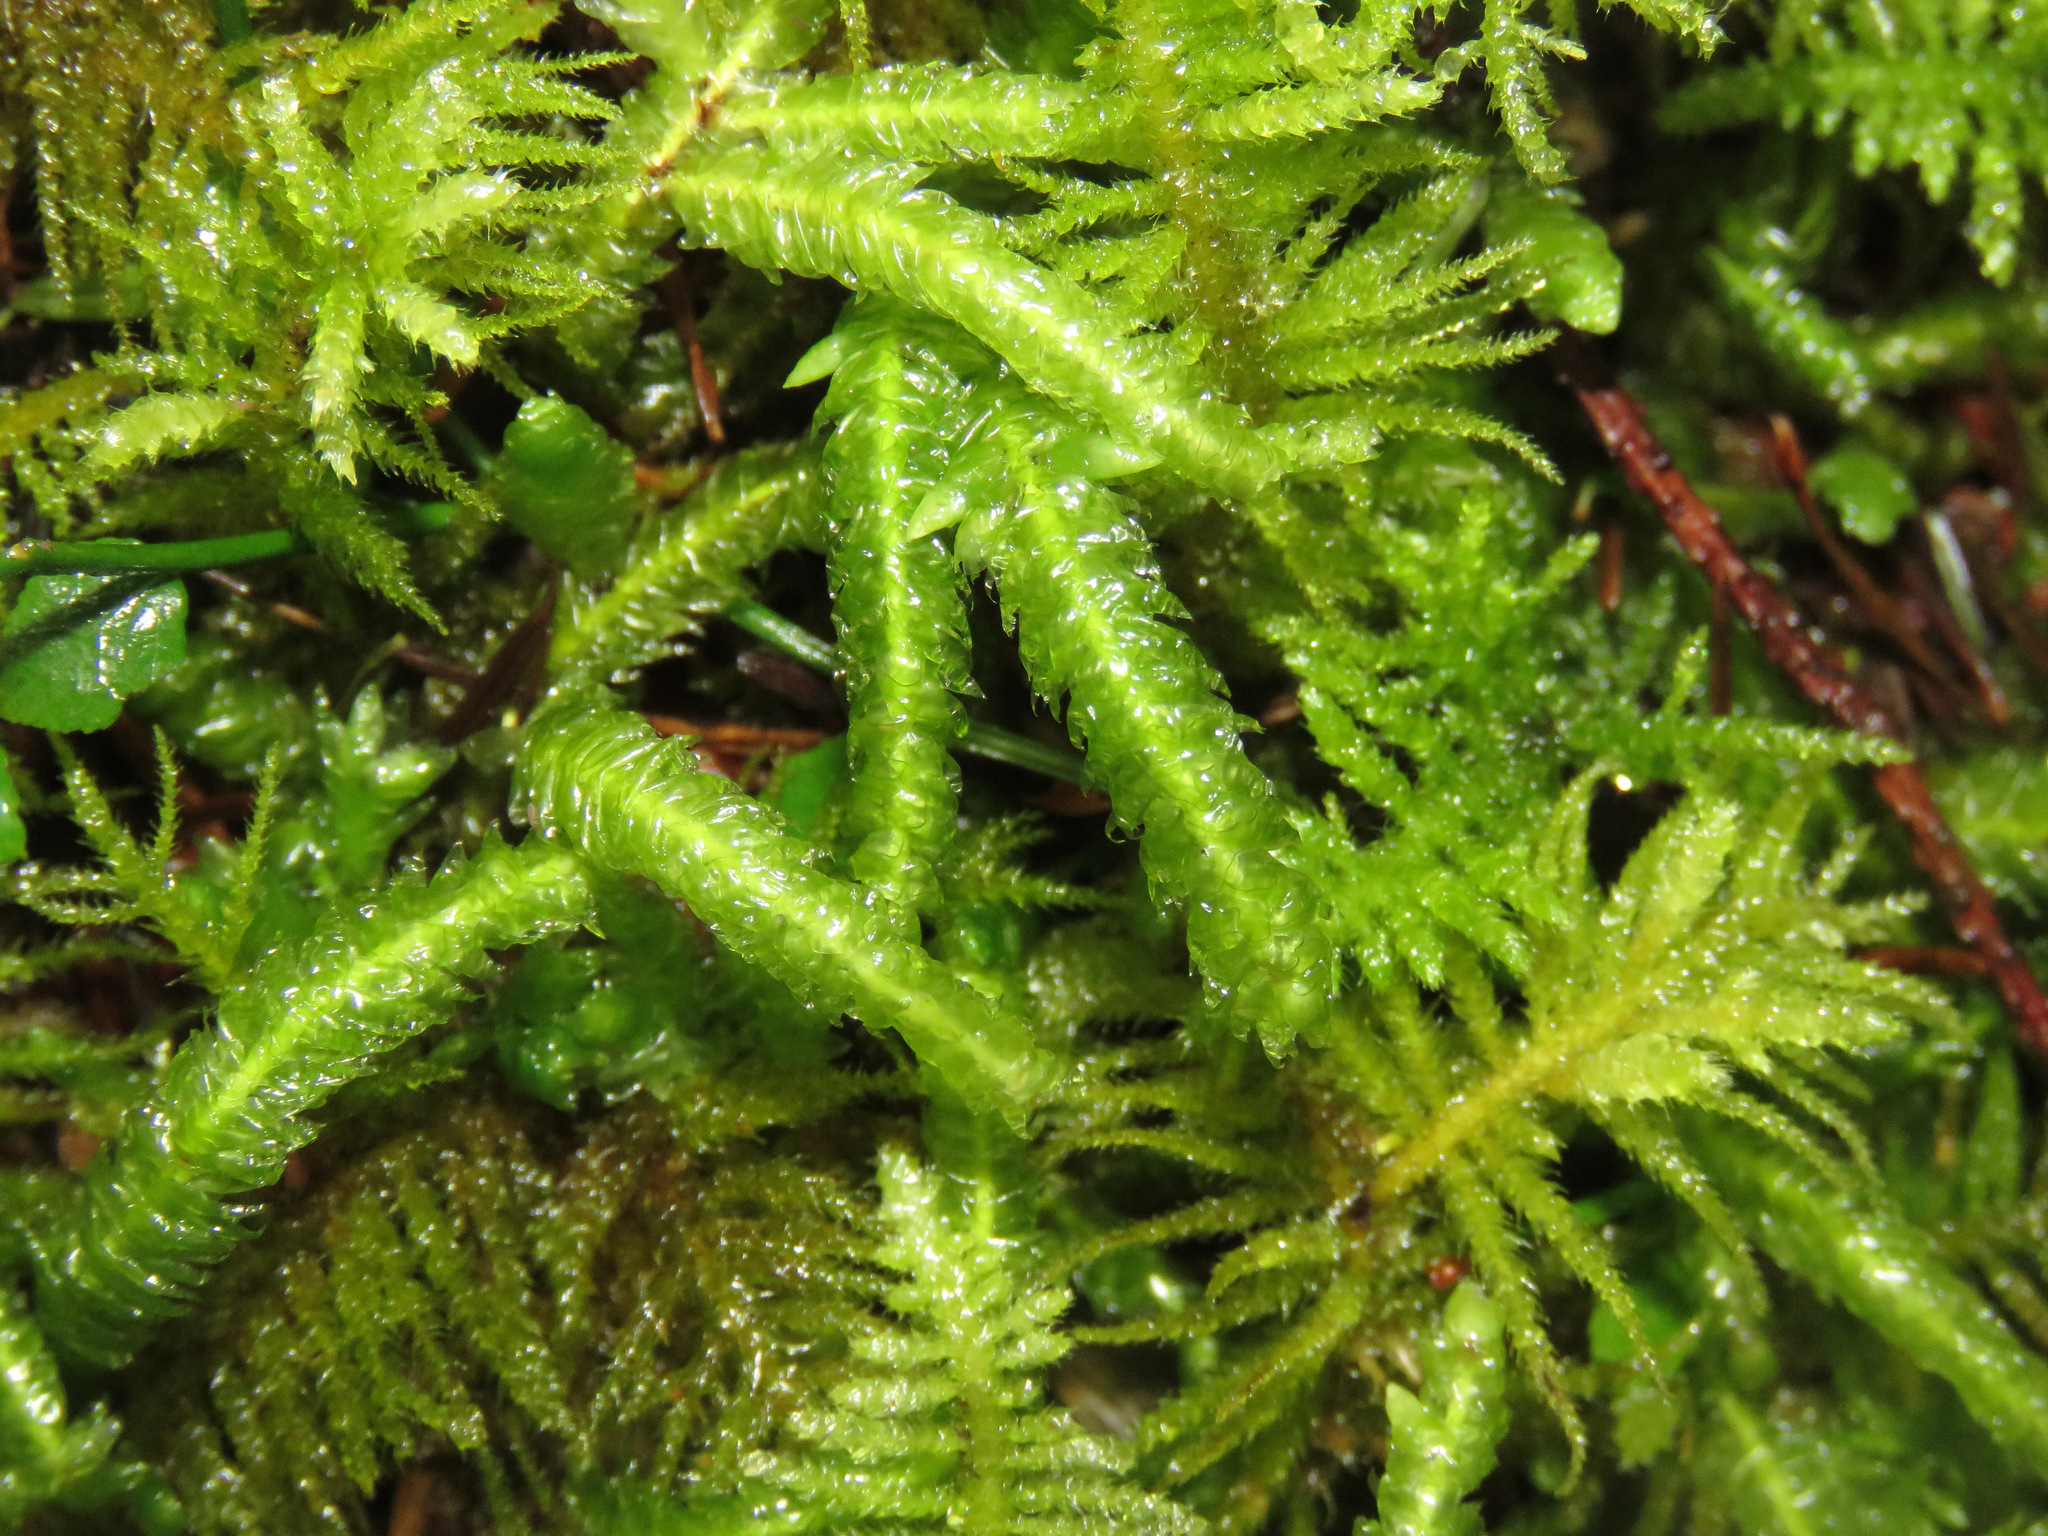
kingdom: Plantae
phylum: Bryophyta
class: Bryopsida
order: Hypnales
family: Plagiotheciaceae
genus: Plagiothecium
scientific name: Plagiothecium undulatum
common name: Waved silk-moss
